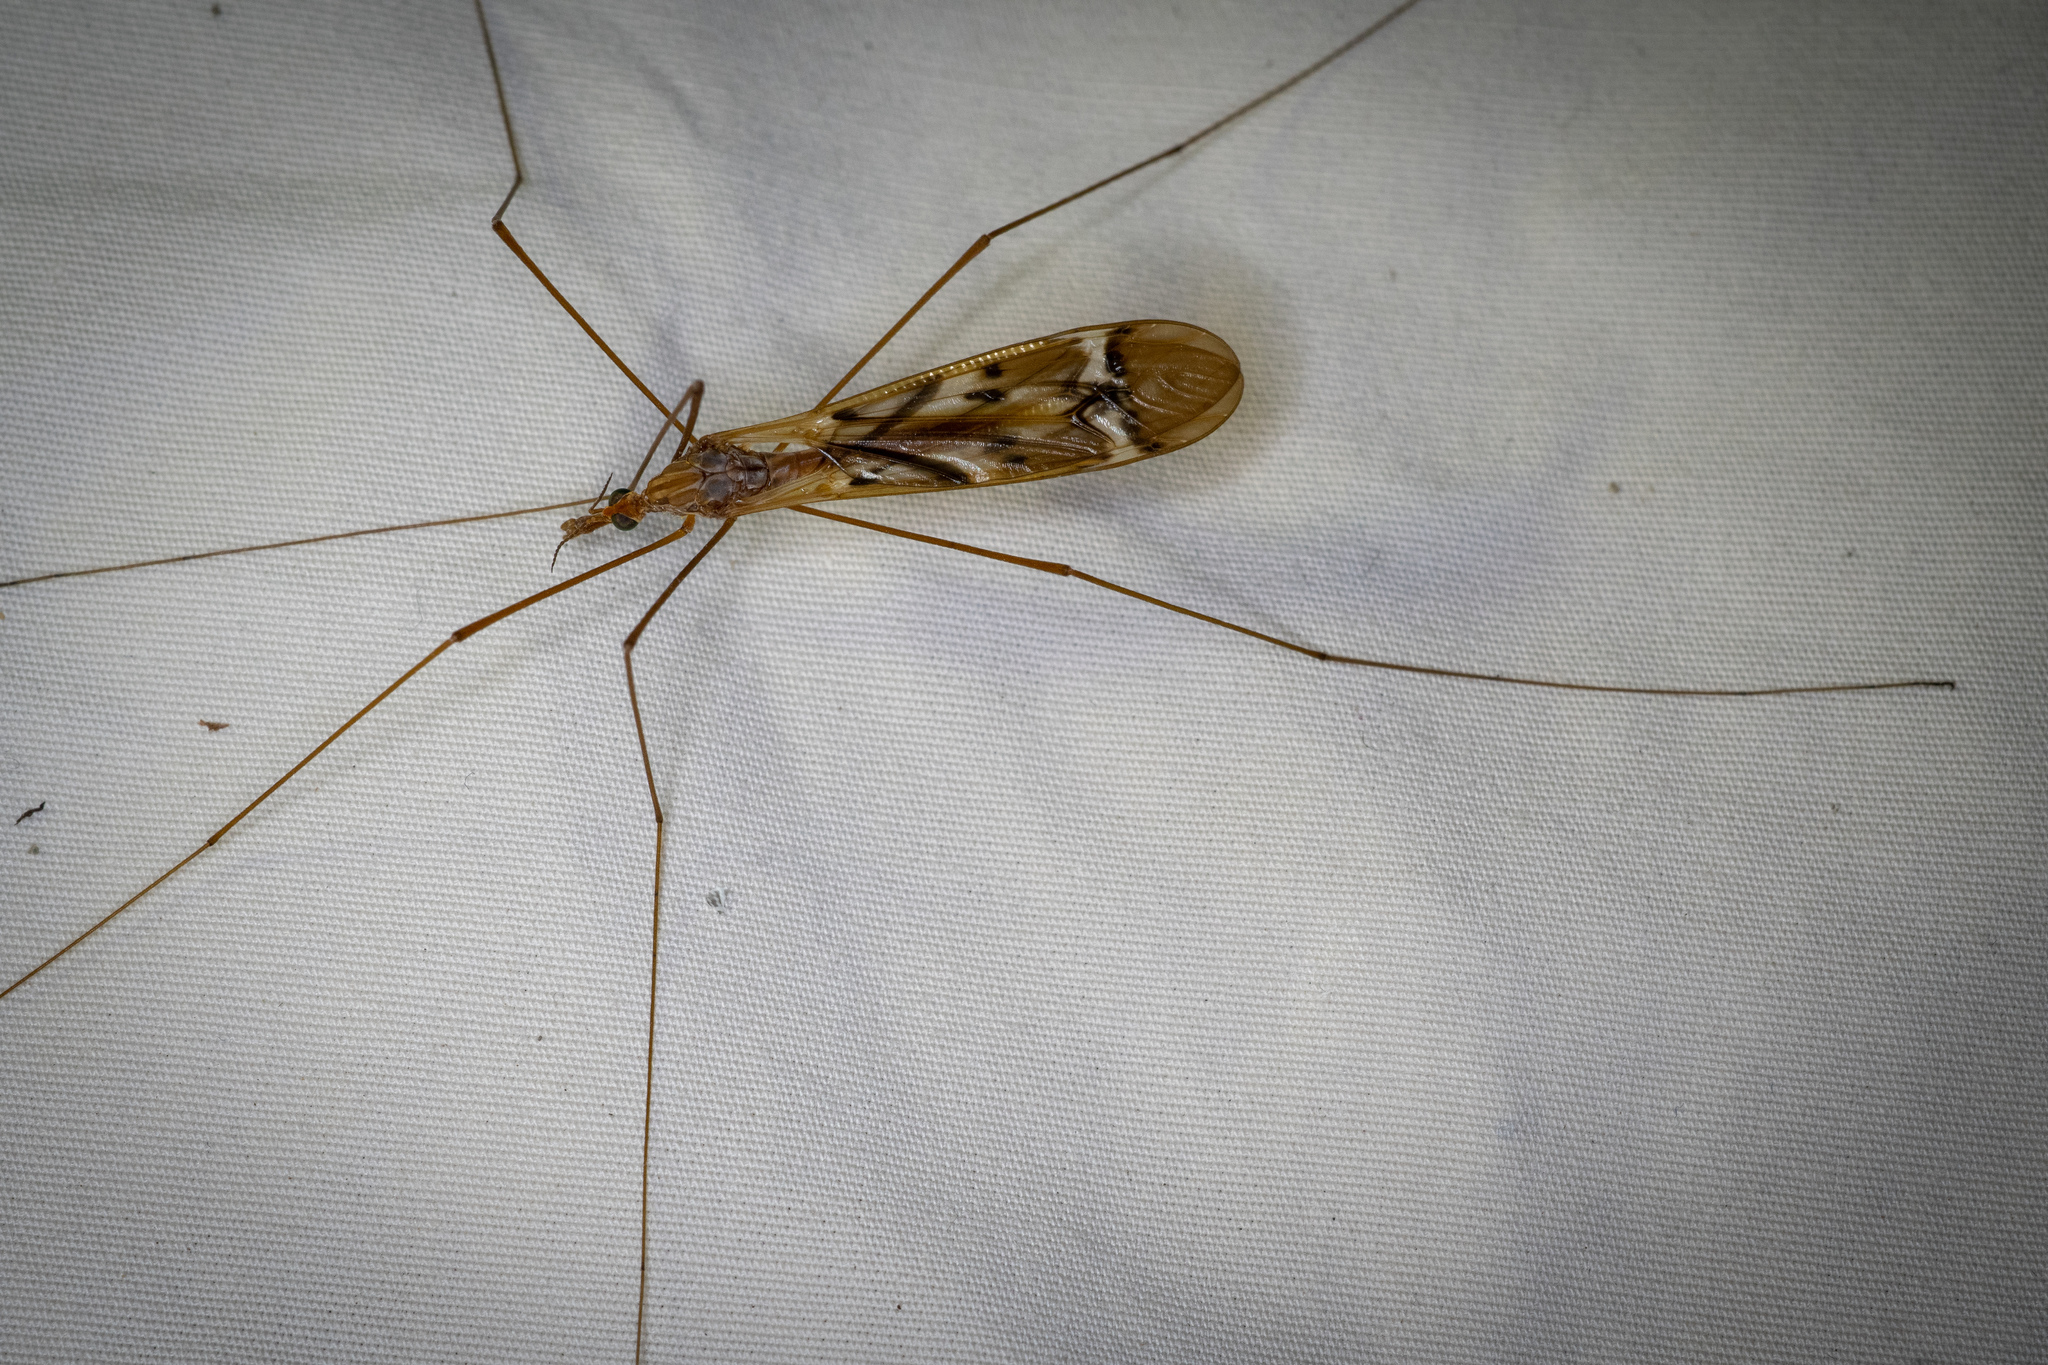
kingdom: Animalia
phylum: Arthropoda
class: Insecta
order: Diptera
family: Tipulidae
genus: Zelandotipula
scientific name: Zelandotipula fulva
